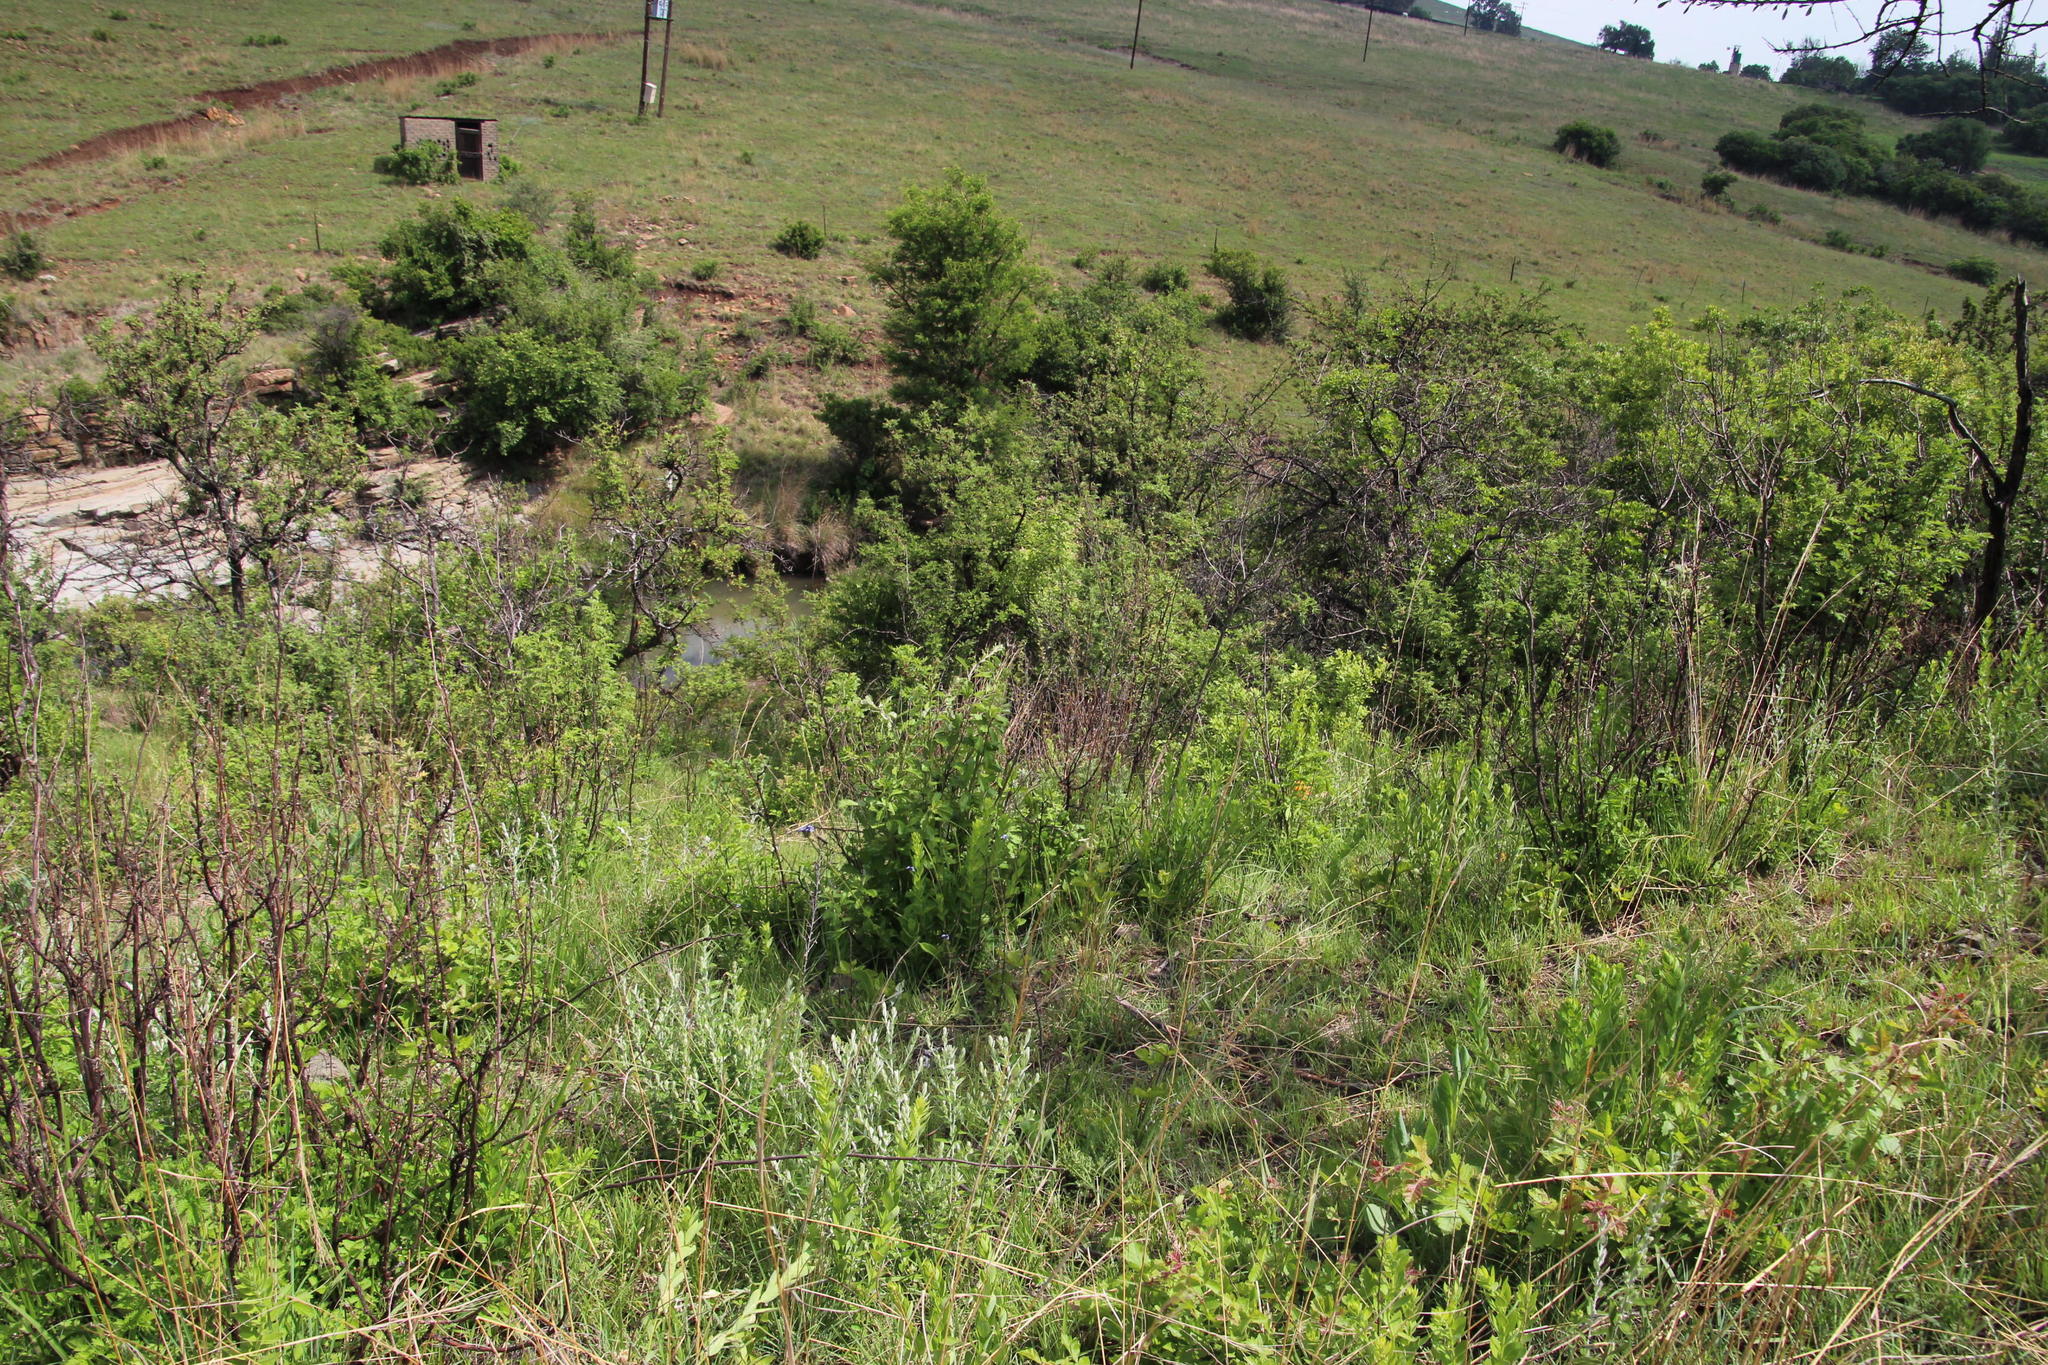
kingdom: Plantae
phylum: Tracheophyta
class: Magnoliopsida
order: Sapindales
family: Anacardiaceae
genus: Searsia
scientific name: Searsia dentata
